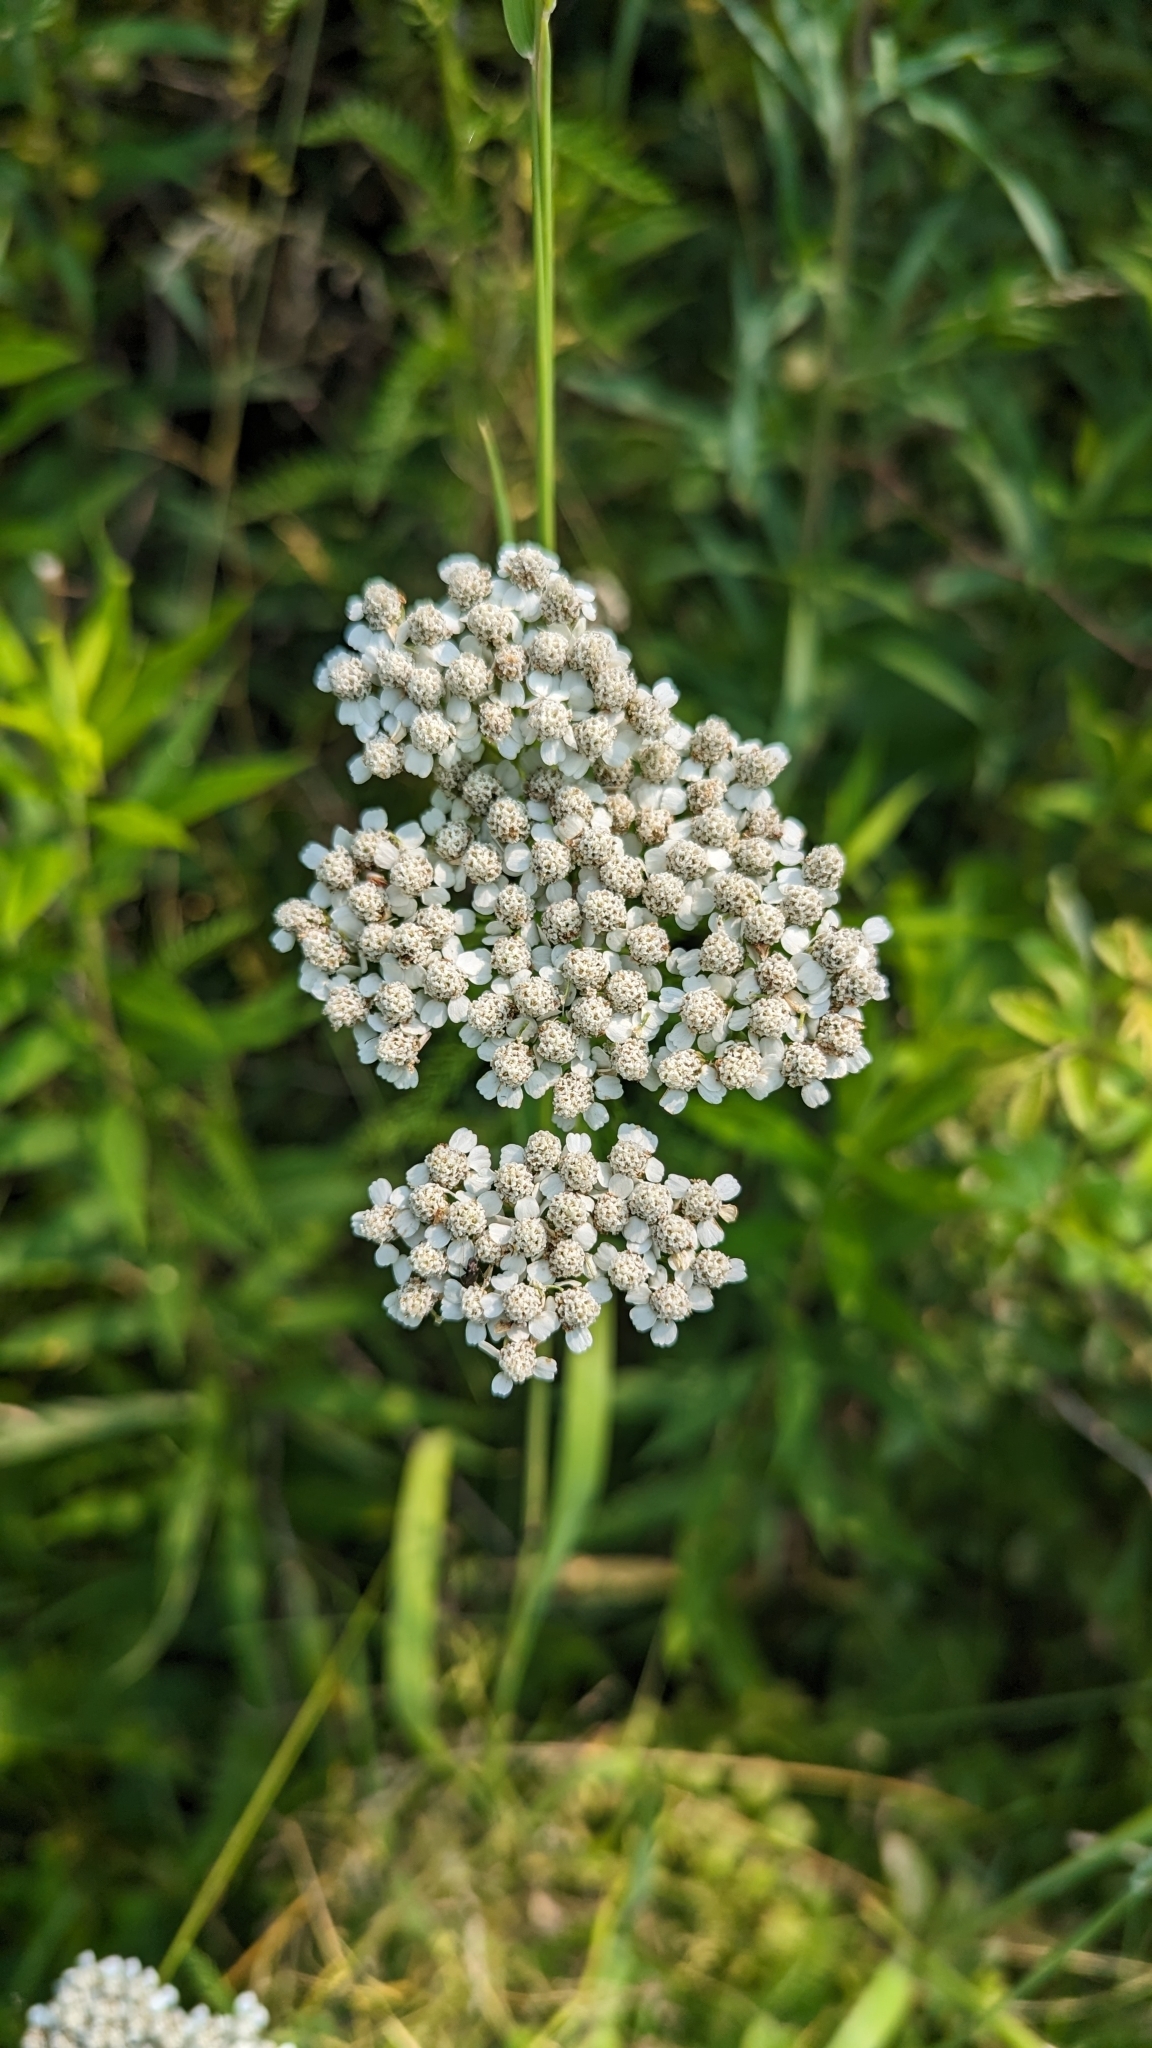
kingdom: Plantae
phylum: Tracheophyta
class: Magnoliopsida
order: Asterales
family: Asteraceae
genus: Achillea
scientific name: Achillea millefolium
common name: Yarrow
